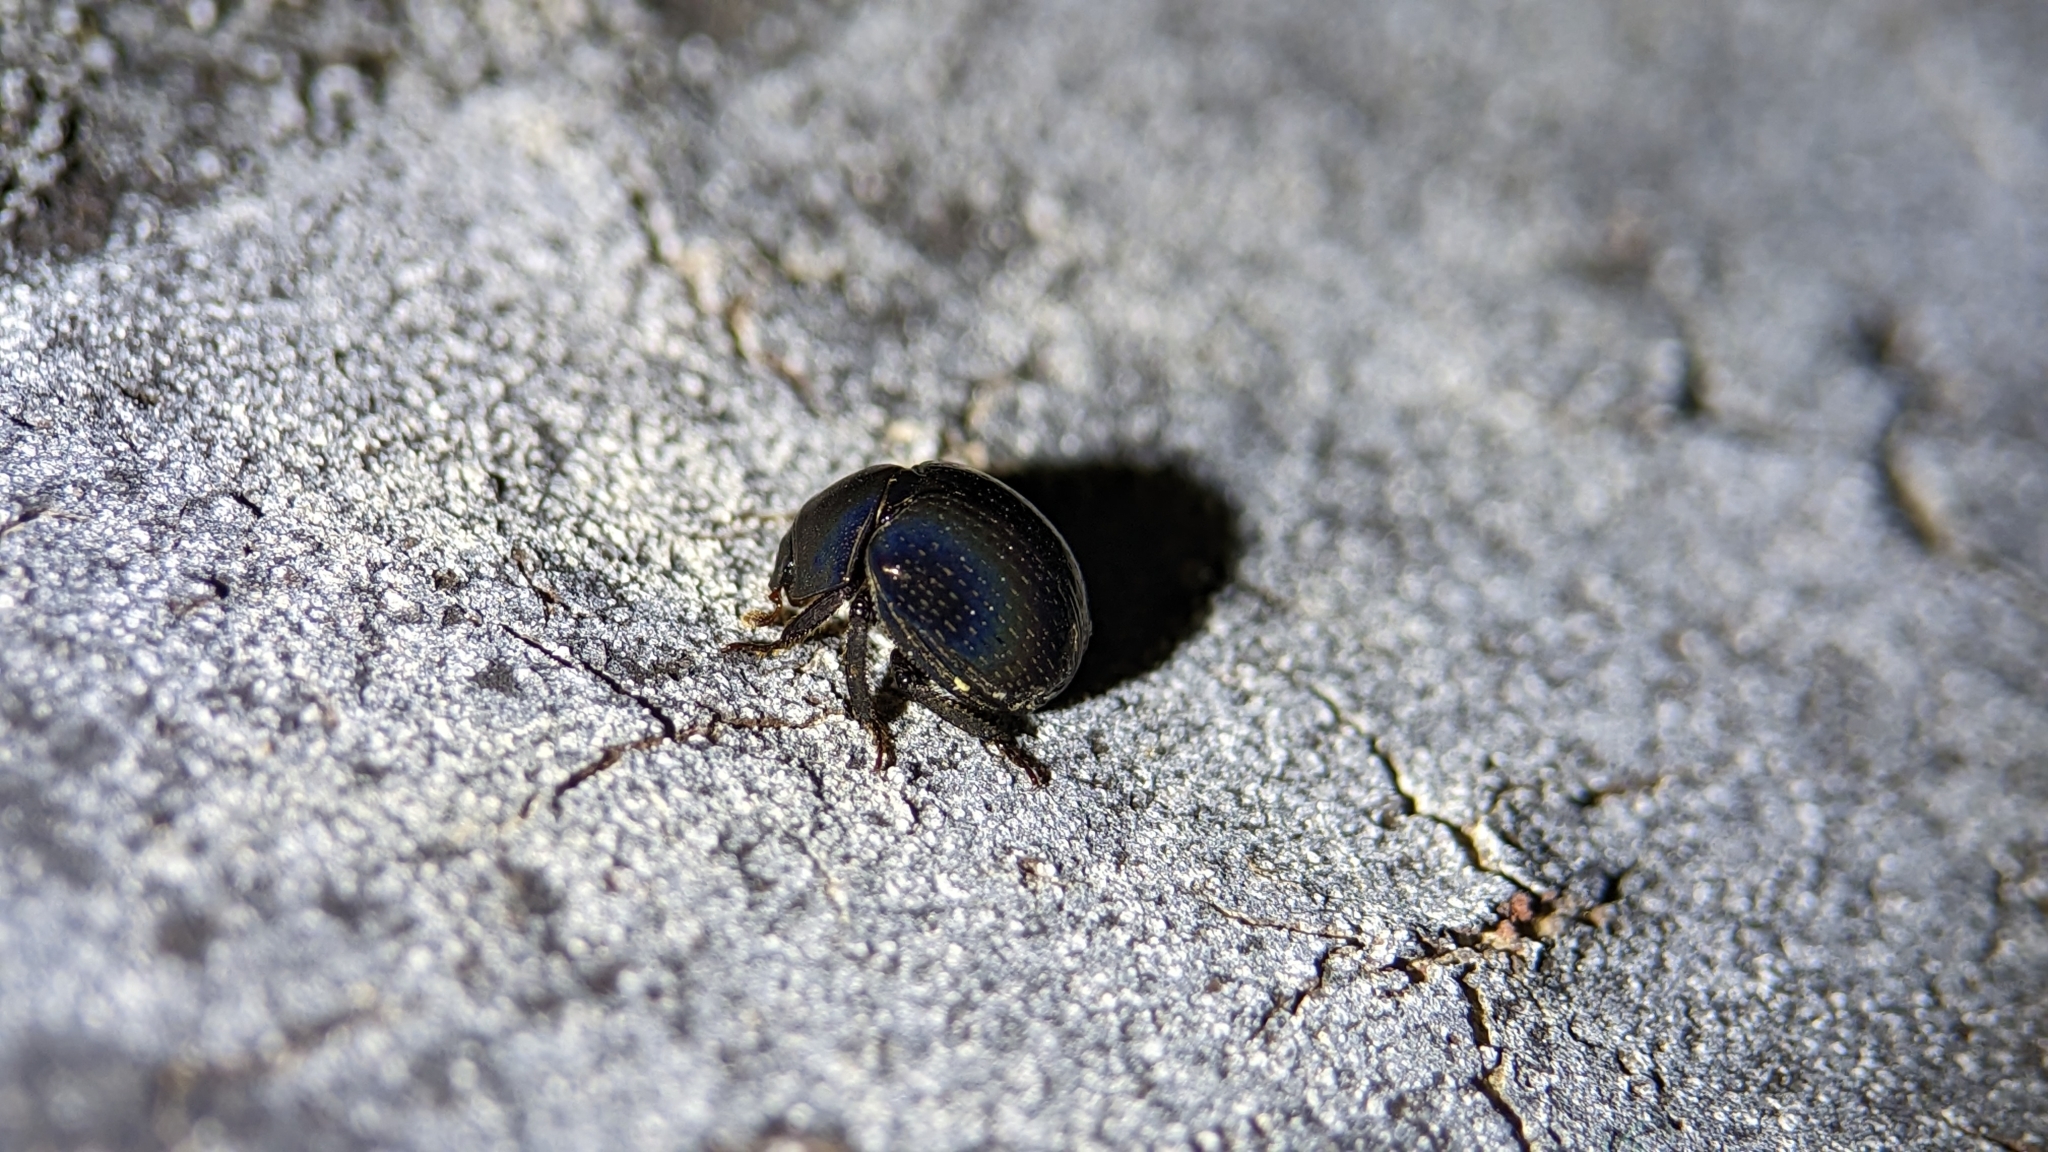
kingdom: Animalia
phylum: Arthropoda
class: Insecta
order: Coleoptera
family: Hybosoridae
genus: Germarostes
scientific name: Germarostes globosus
